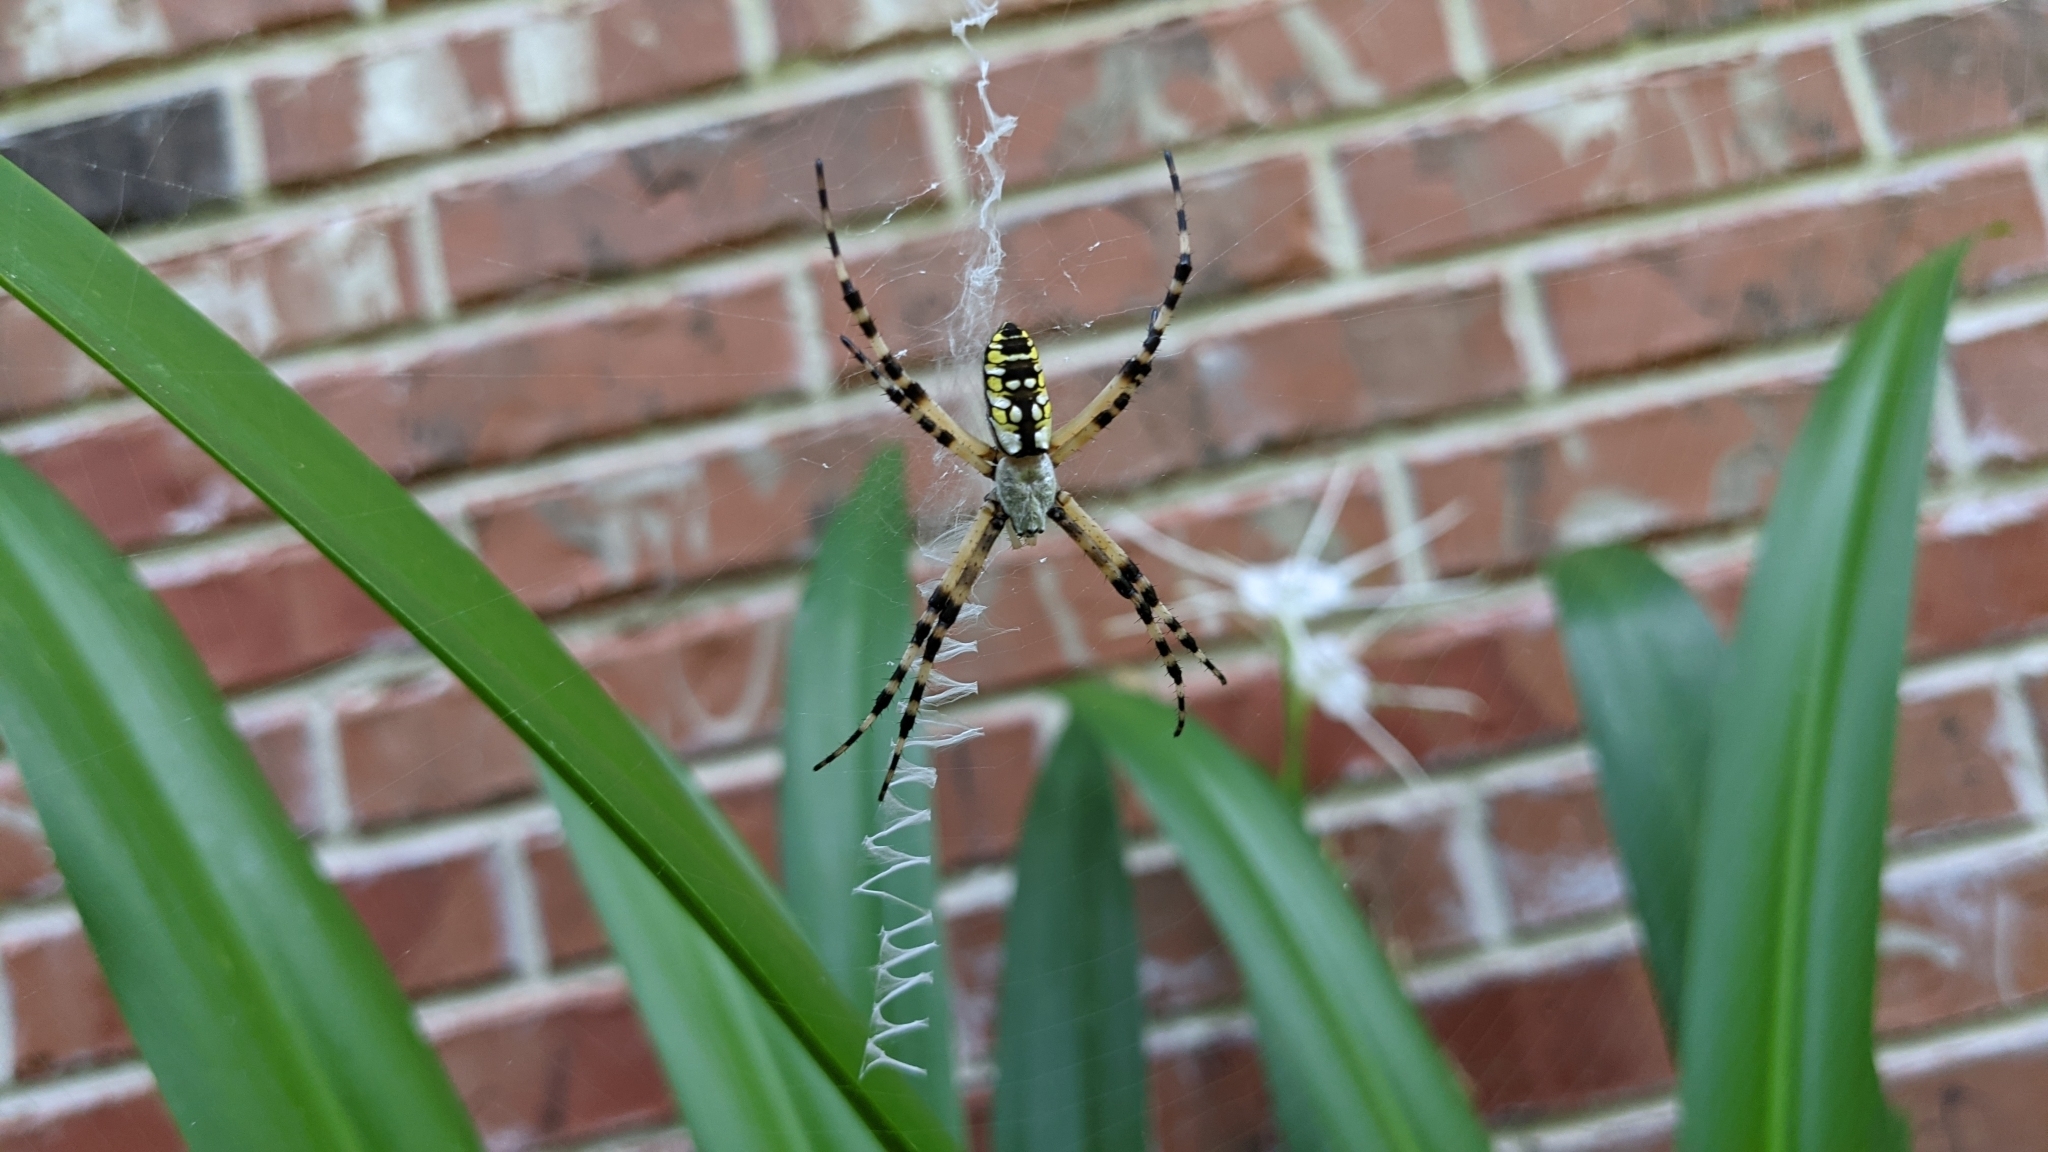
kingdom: Animalia
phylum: Arthropoda
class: Arachnida
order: Araneae
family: Araneidae
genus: Argiope
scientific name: Argiope aurantia
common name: Orb weavers
